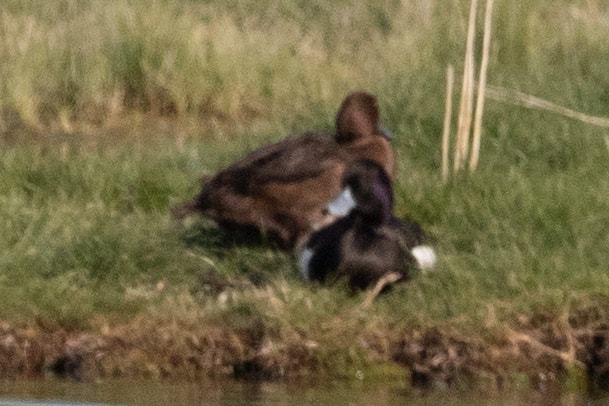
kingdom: Animalia
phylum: Chordata
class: Aves
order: Anseriformes
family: Anatidae
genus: Aythya
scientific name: Aythya fuligula
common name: Tufted duck
